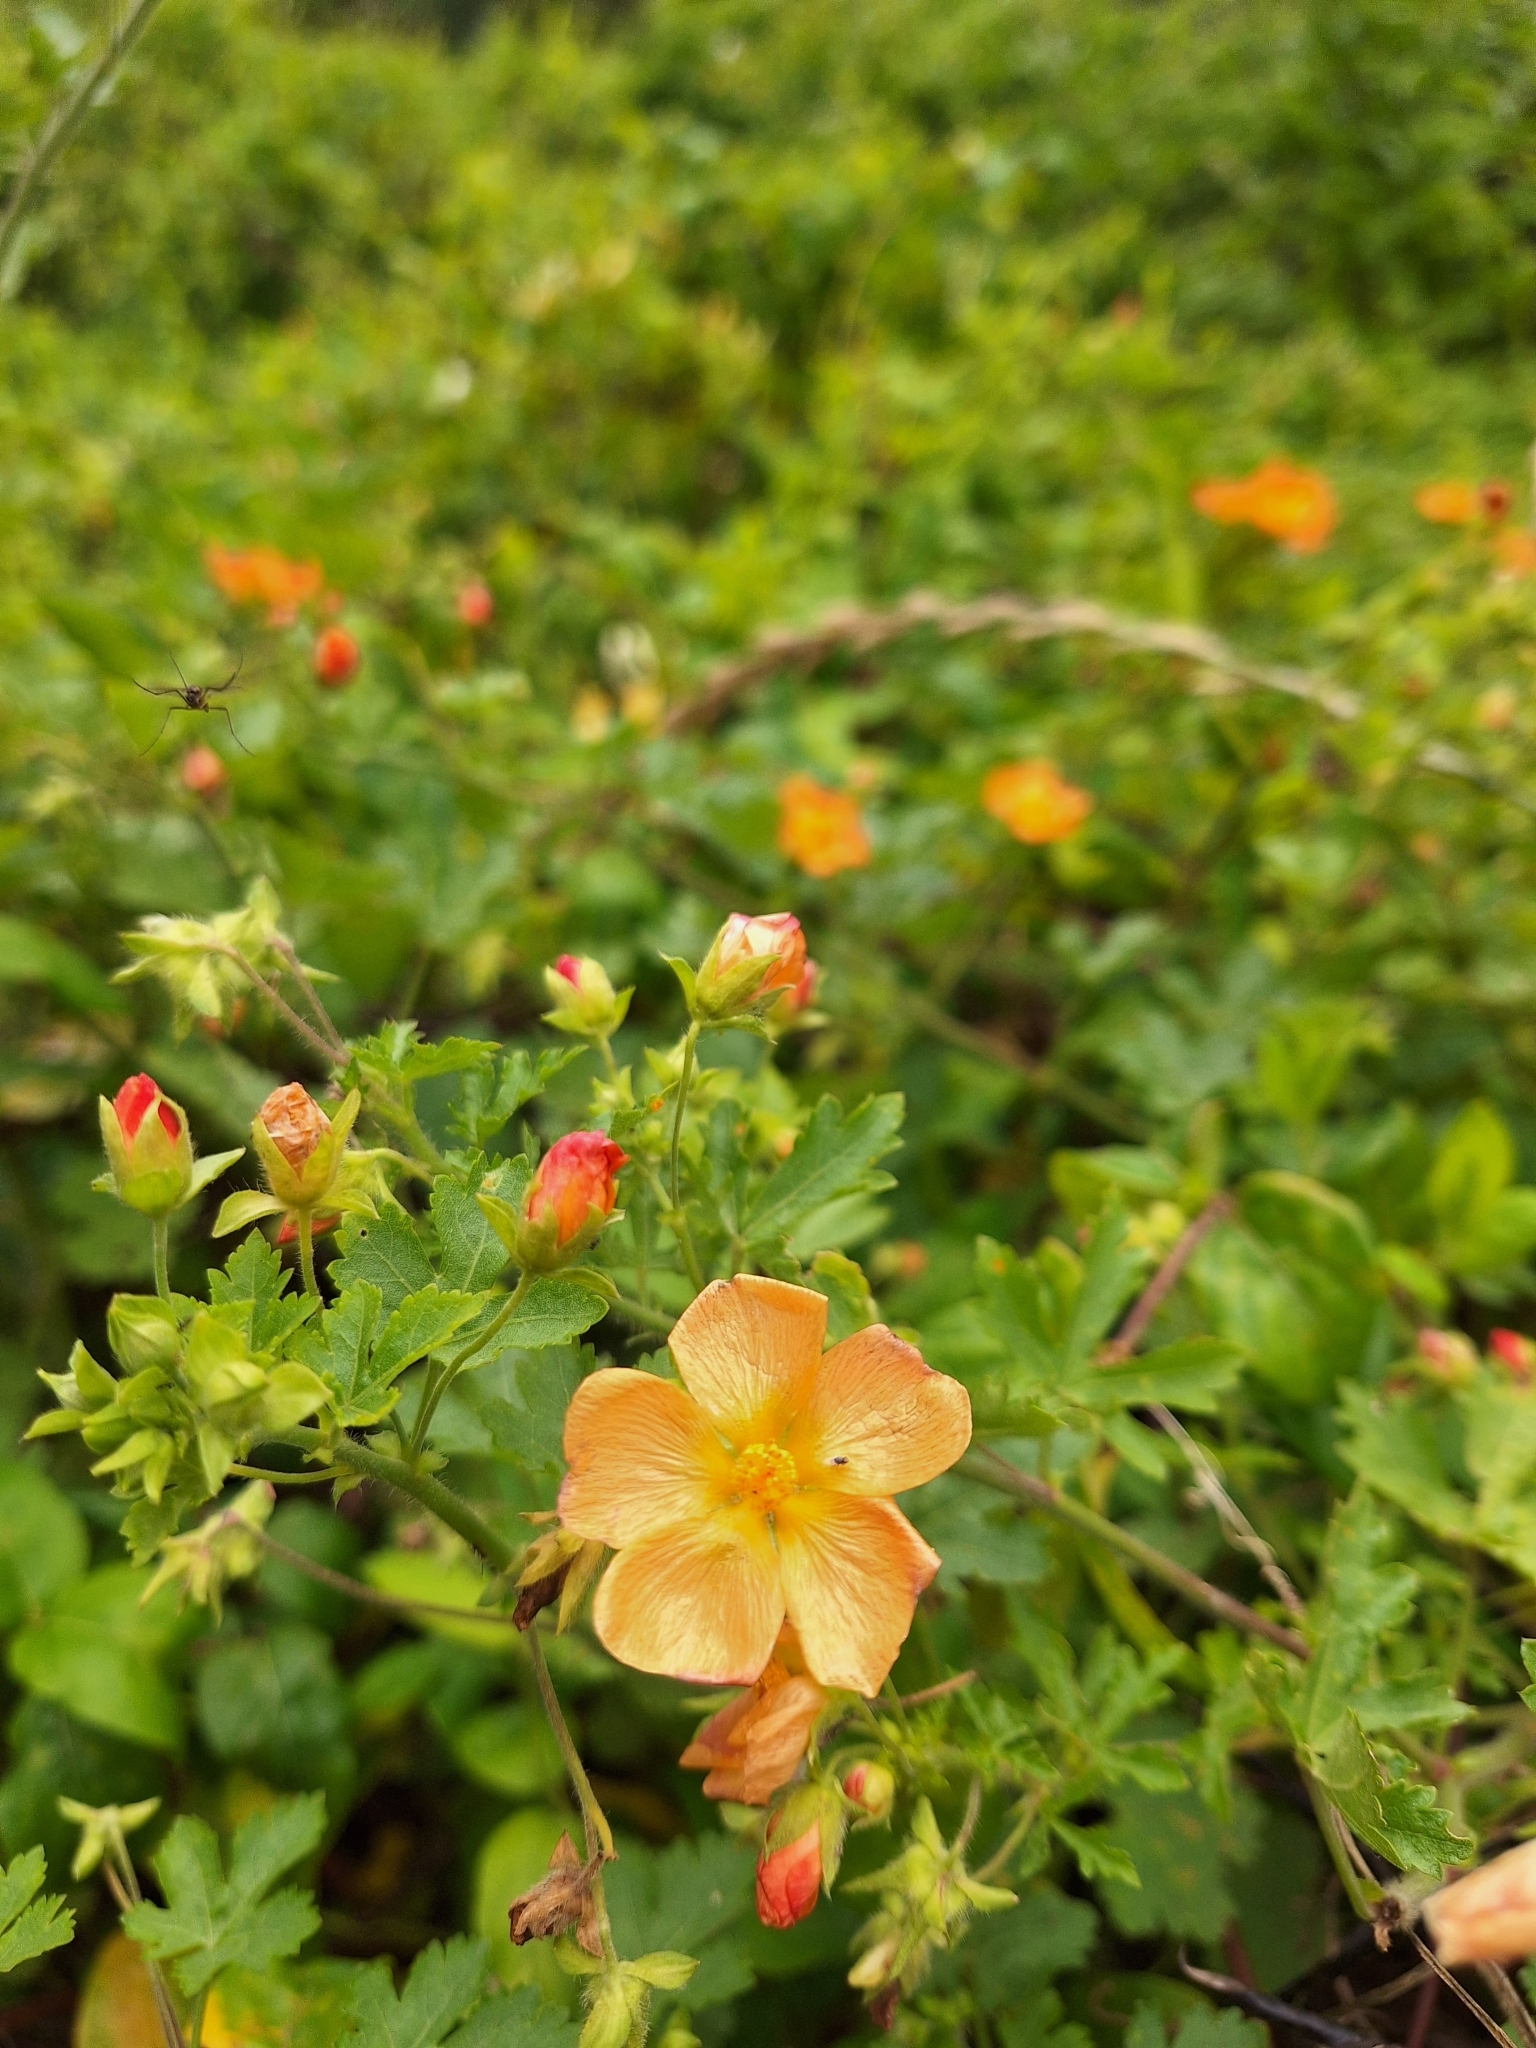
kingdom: Plantae
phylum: Tracheophyta
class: Magnoliopsida
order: Malvales
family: Malvaceae
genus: Modiolastrum
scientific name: Modiolastrum malvifolium
